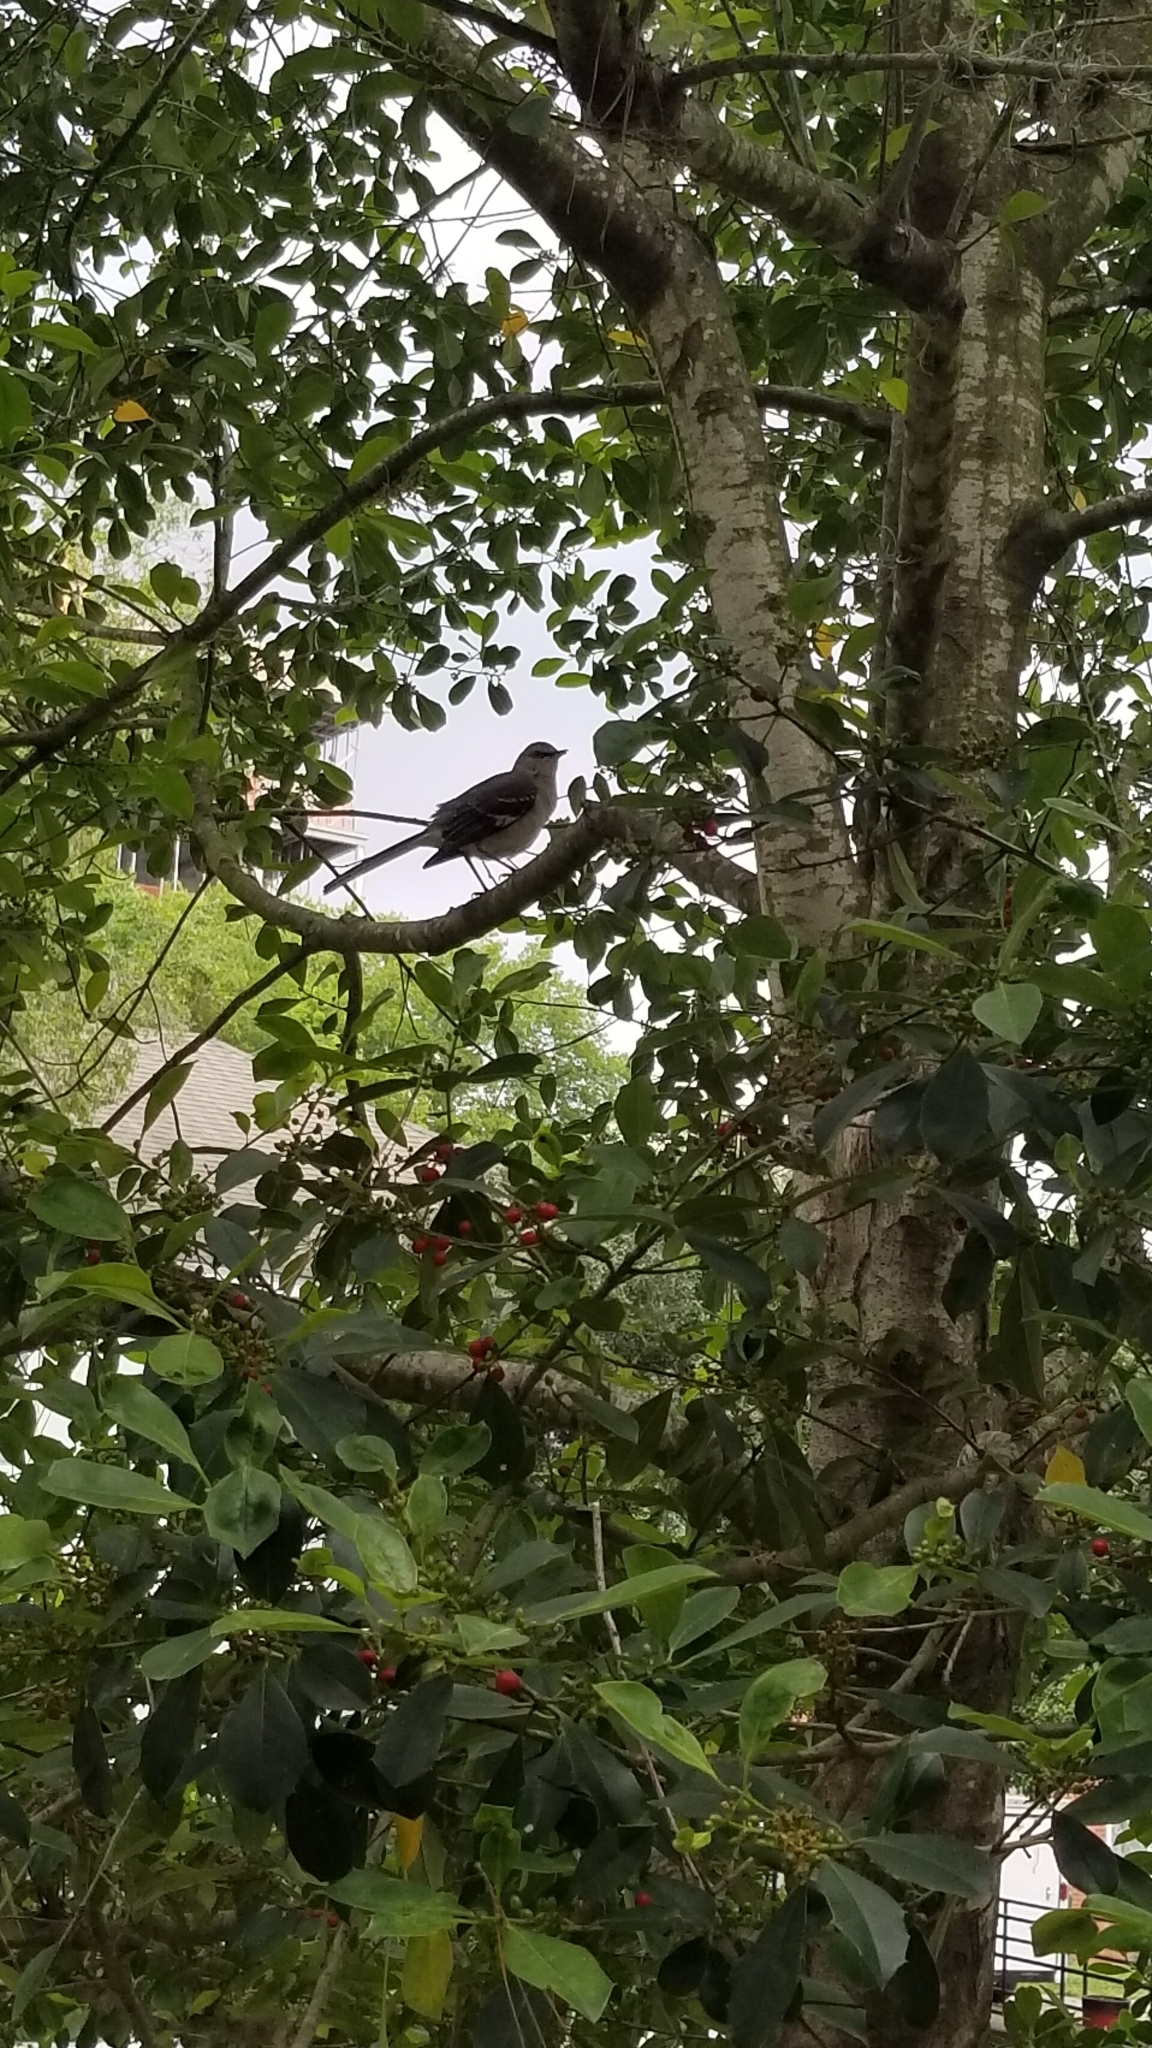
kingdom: Animalia
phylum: Chordata
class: Aves
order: Passeriformes
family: Mimidae
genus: Mimus
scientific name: Mimus polyglottos
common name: Northern mockingbird
